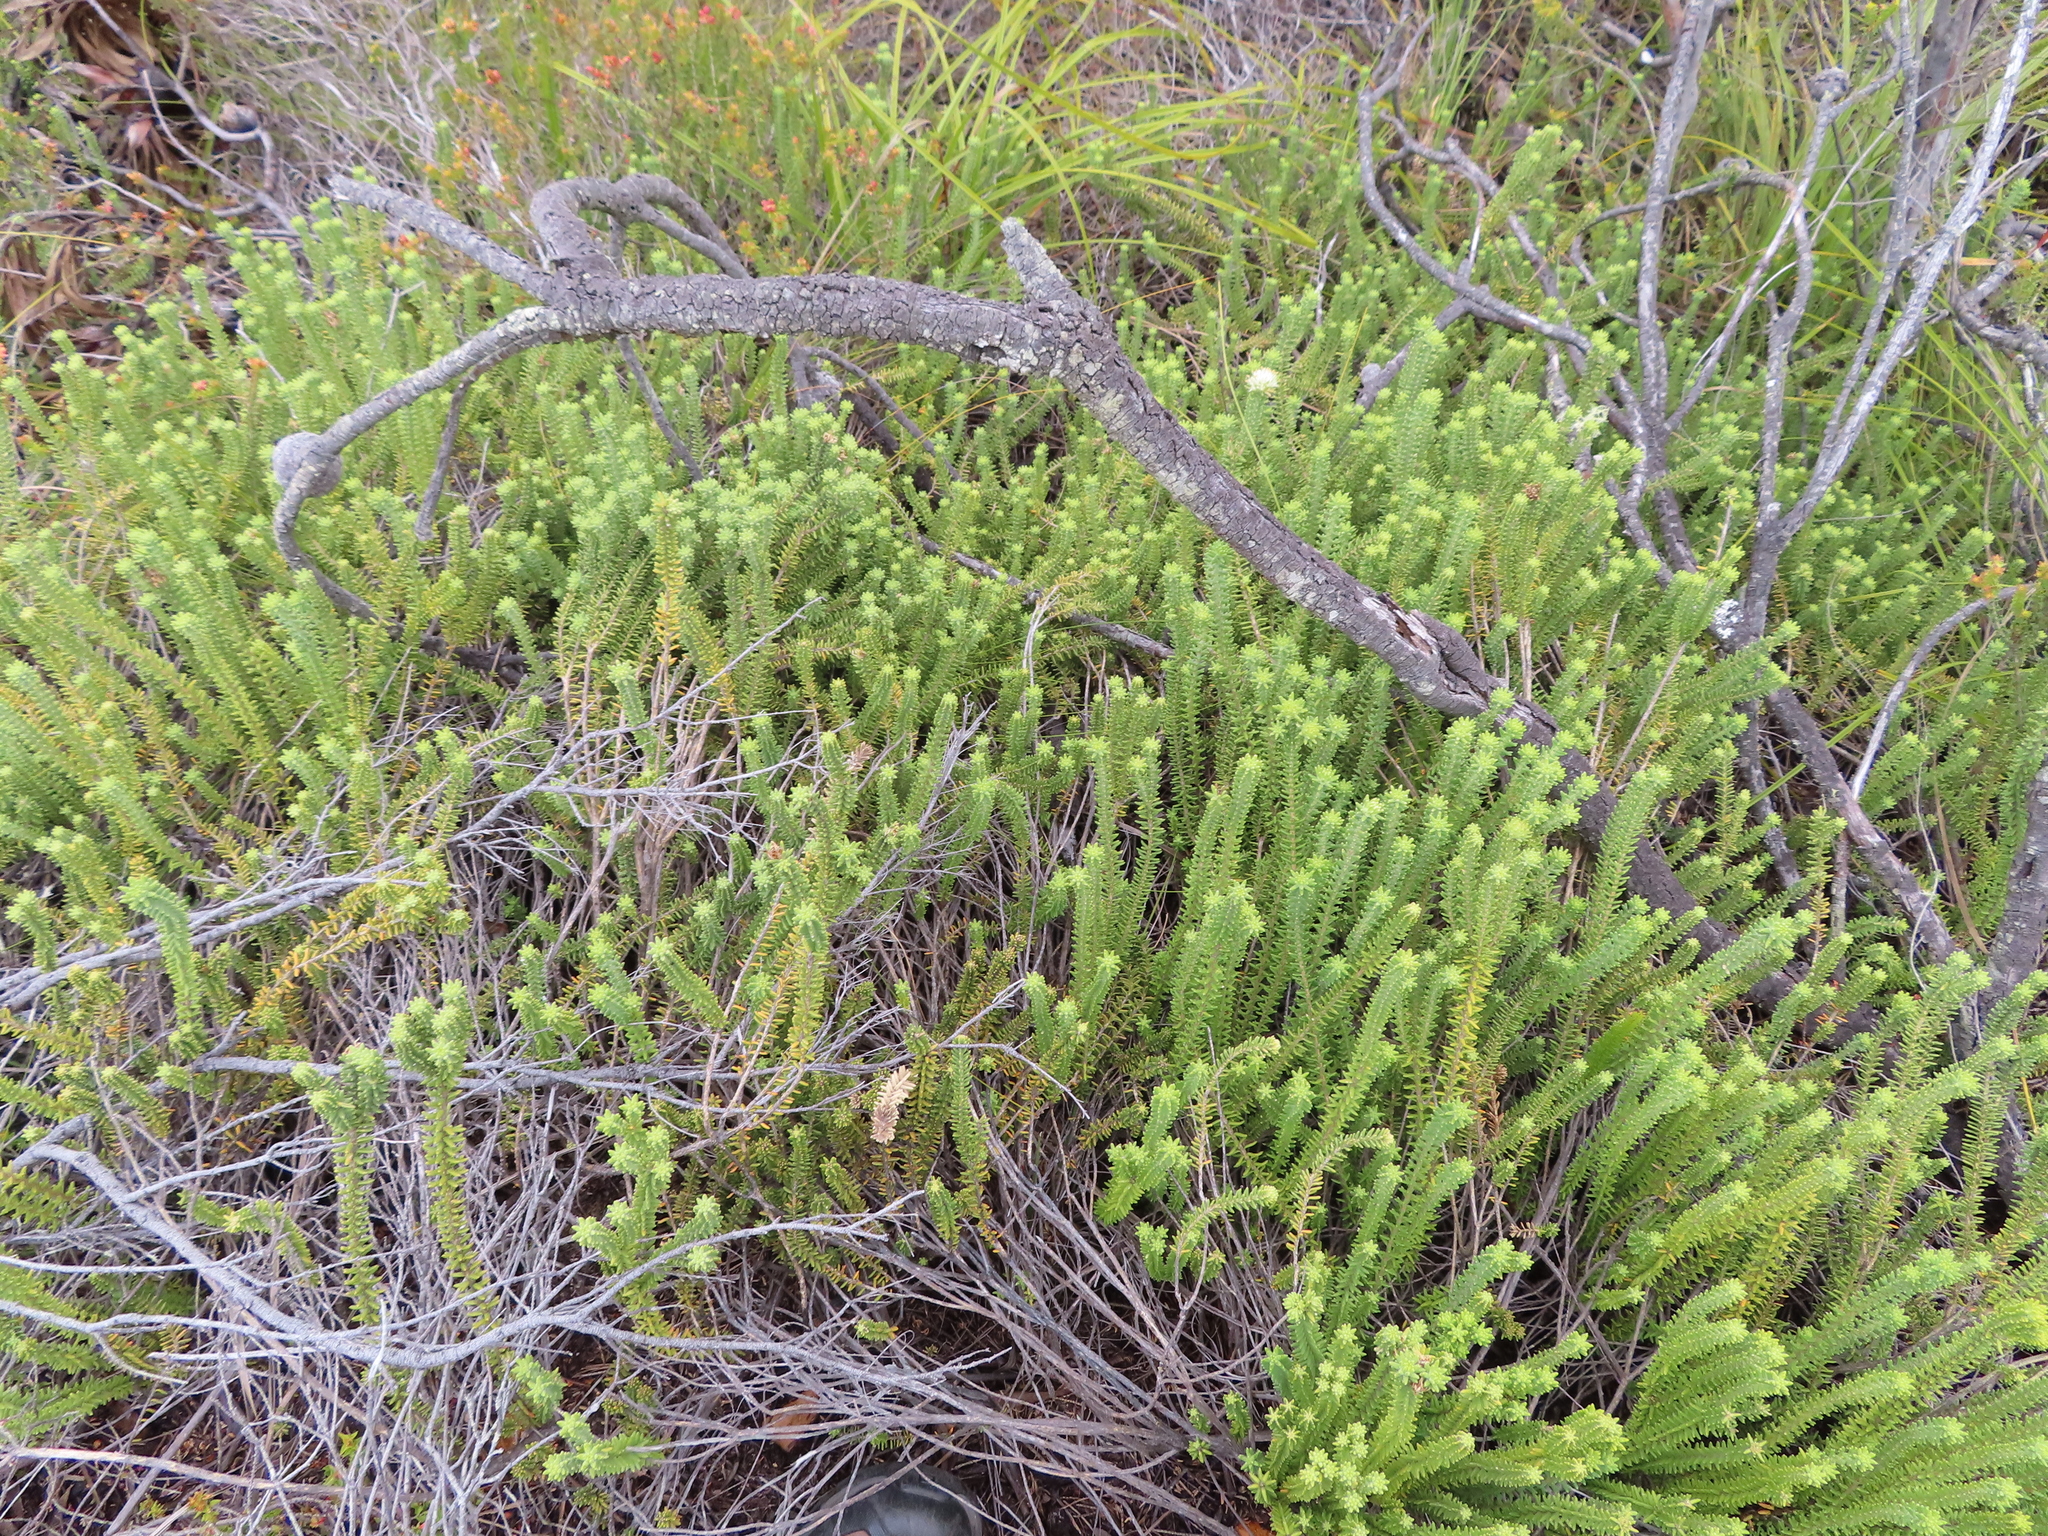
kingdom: Plantae
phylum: Tracheophyta
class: Magnoliopsida
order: Lamiales
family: Stilbaceae
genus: Campylostachys
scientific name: Campylostachys cernua
